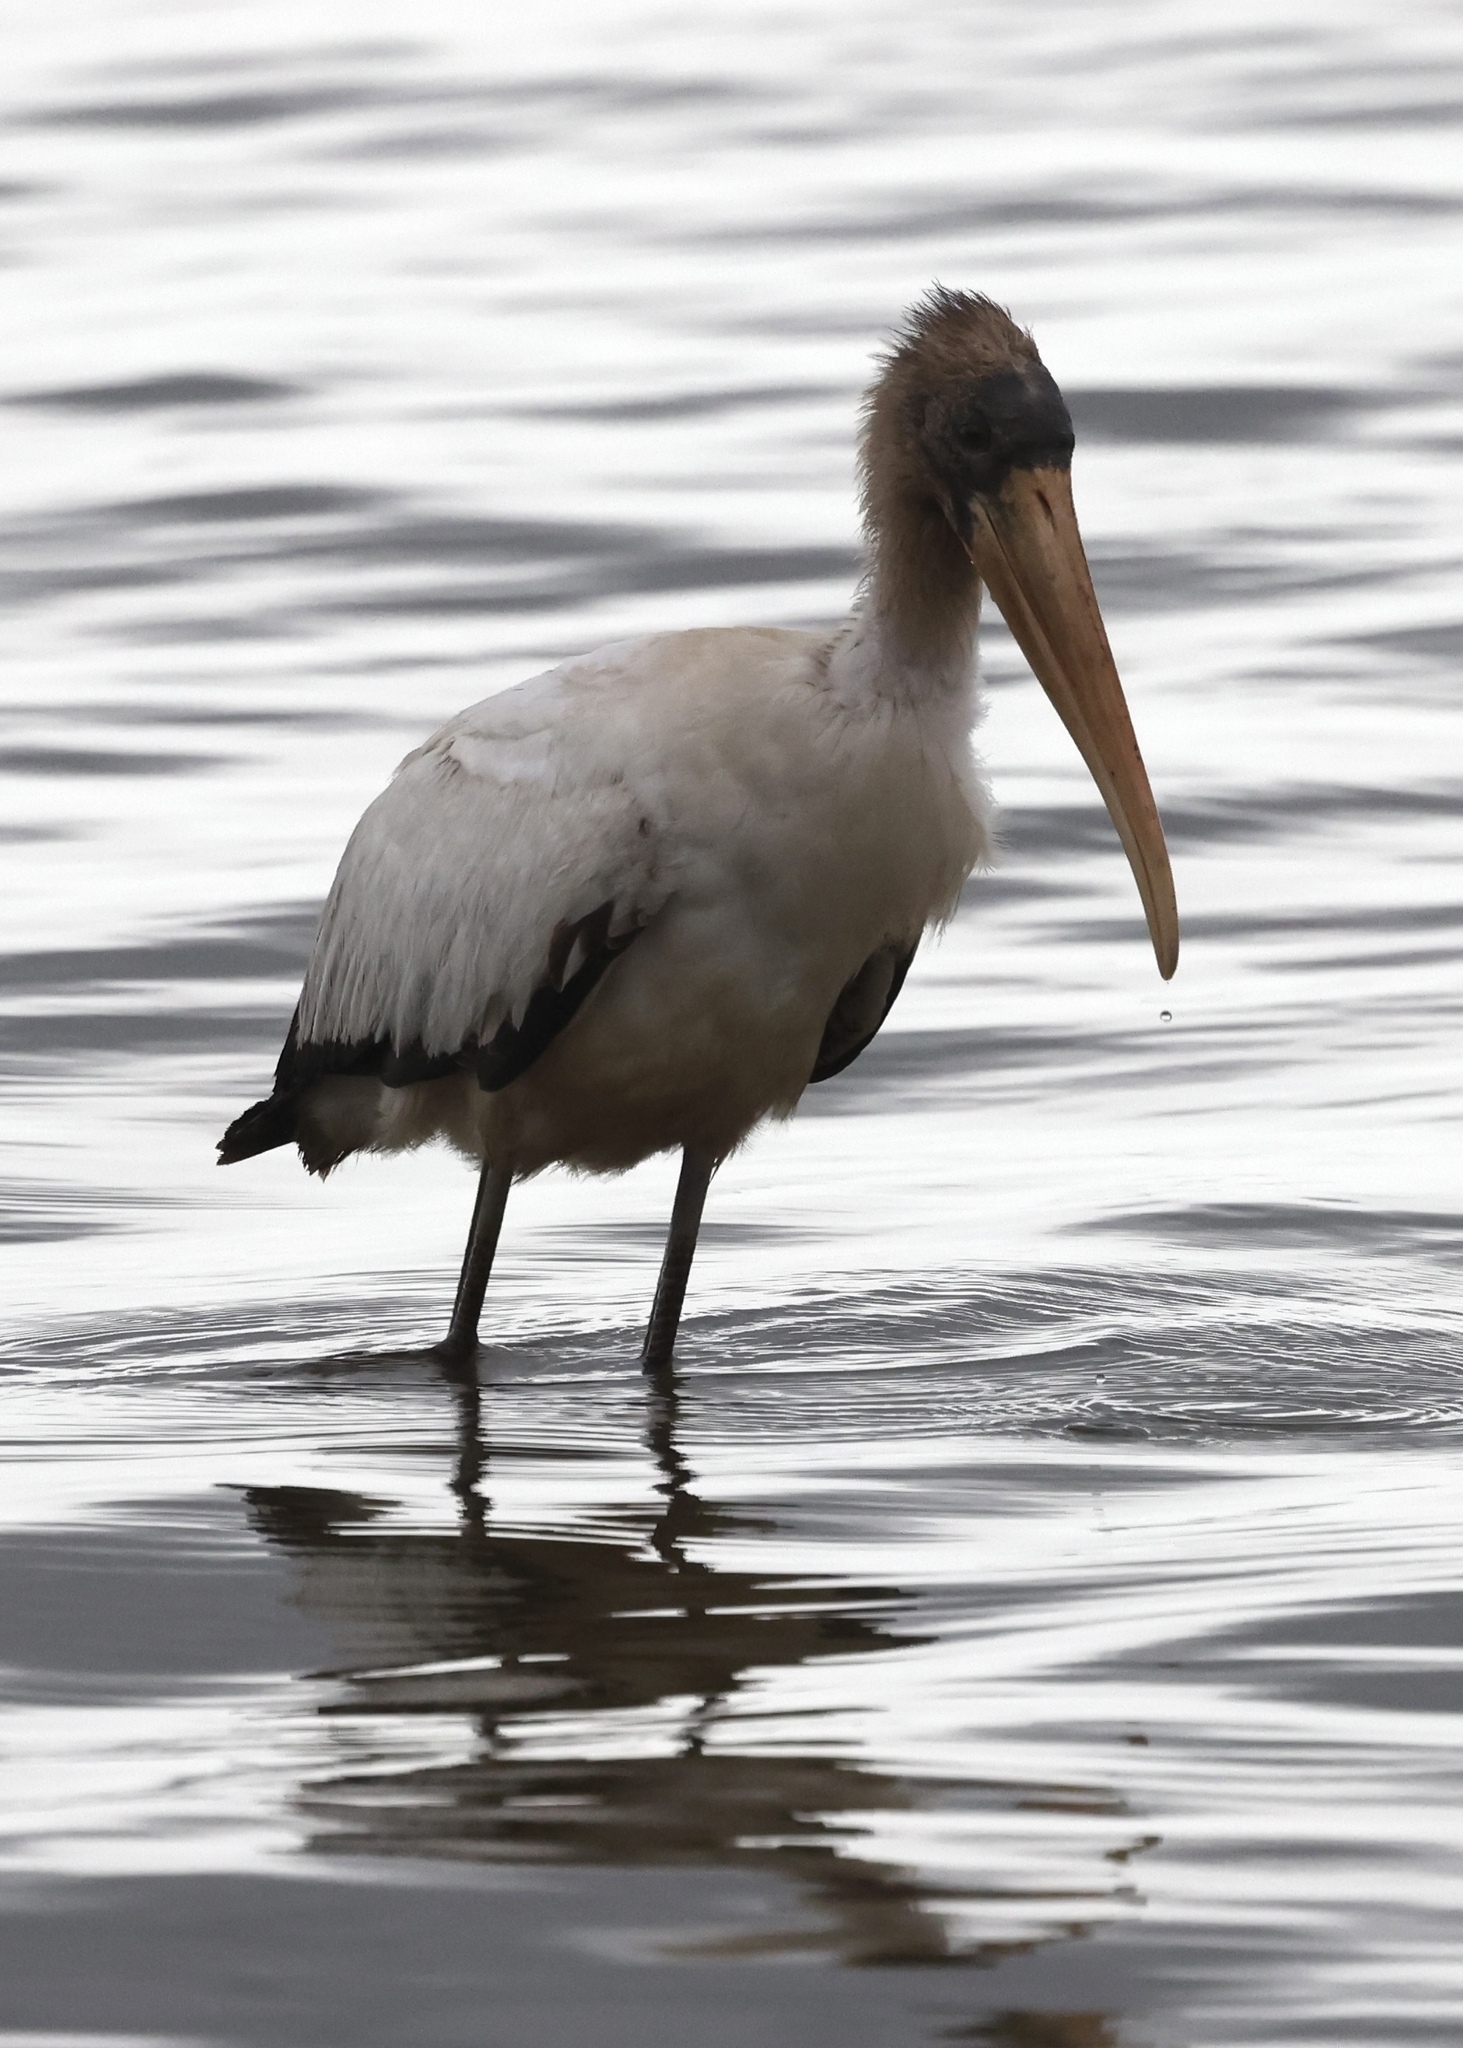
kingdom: Animalia
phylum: Chordata
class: Aves
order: Ciconiiformes
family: Ciconiidae
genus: Mycteria
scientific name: Mycteria americana
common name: Wood stork
